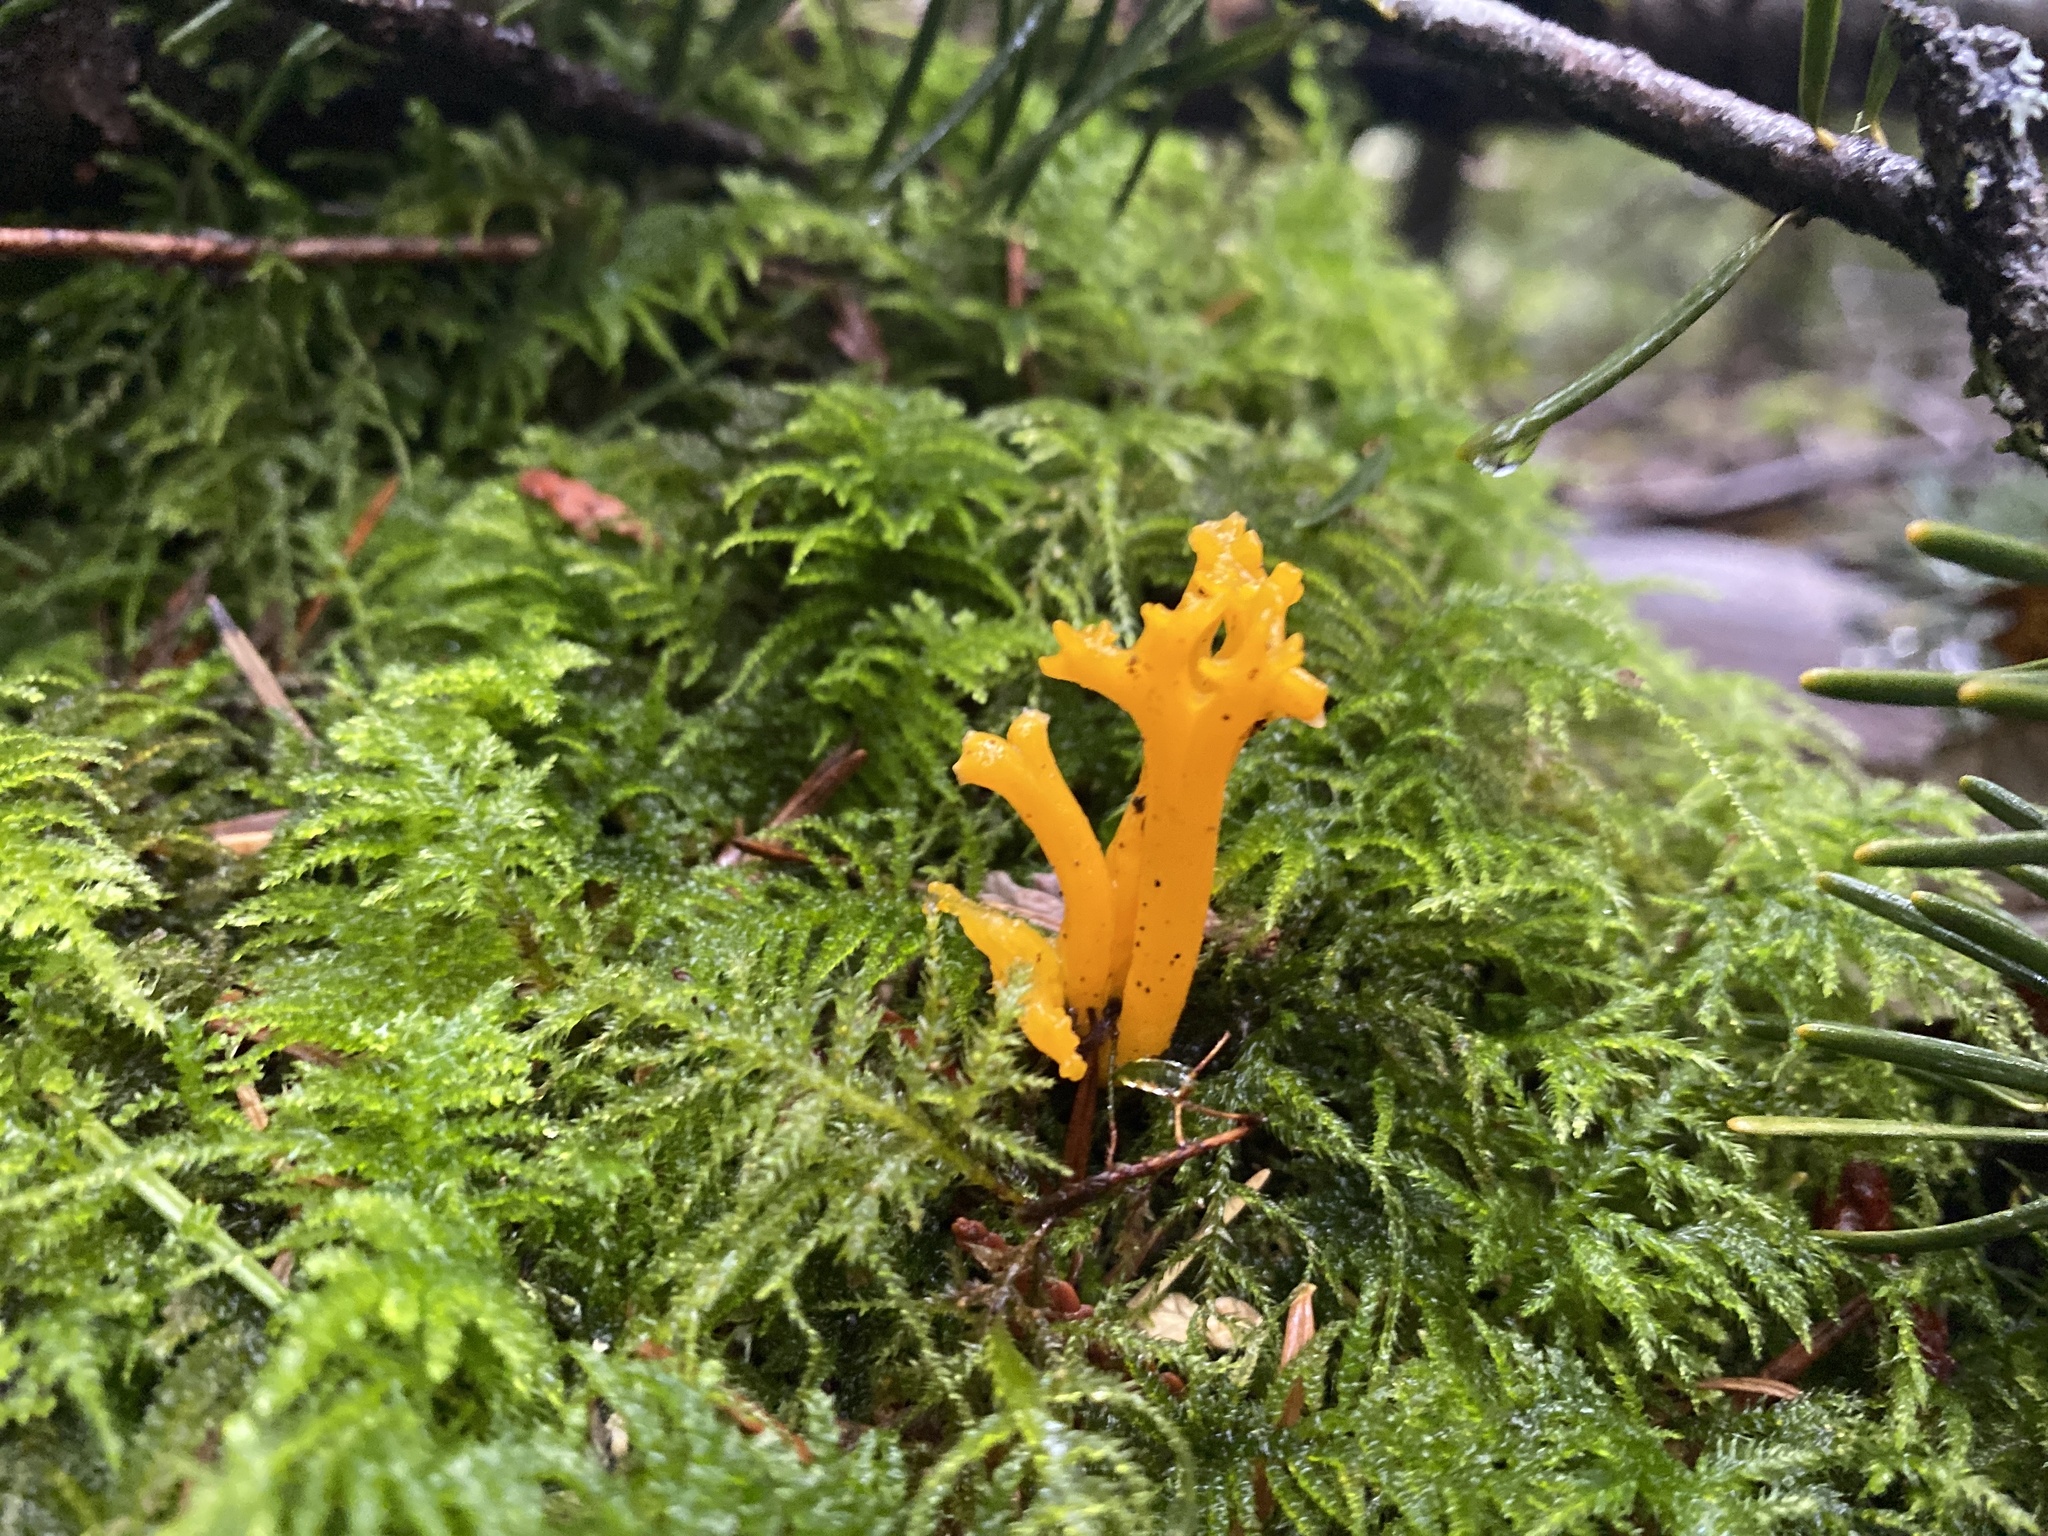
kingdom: Fungi
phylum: Basidiomycota
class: Dacrymycetes
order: Dacrymycetales
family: Dacrymycetaceae
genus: Calocera
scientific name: Calocera viscosa
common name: Yellow stagshorn
